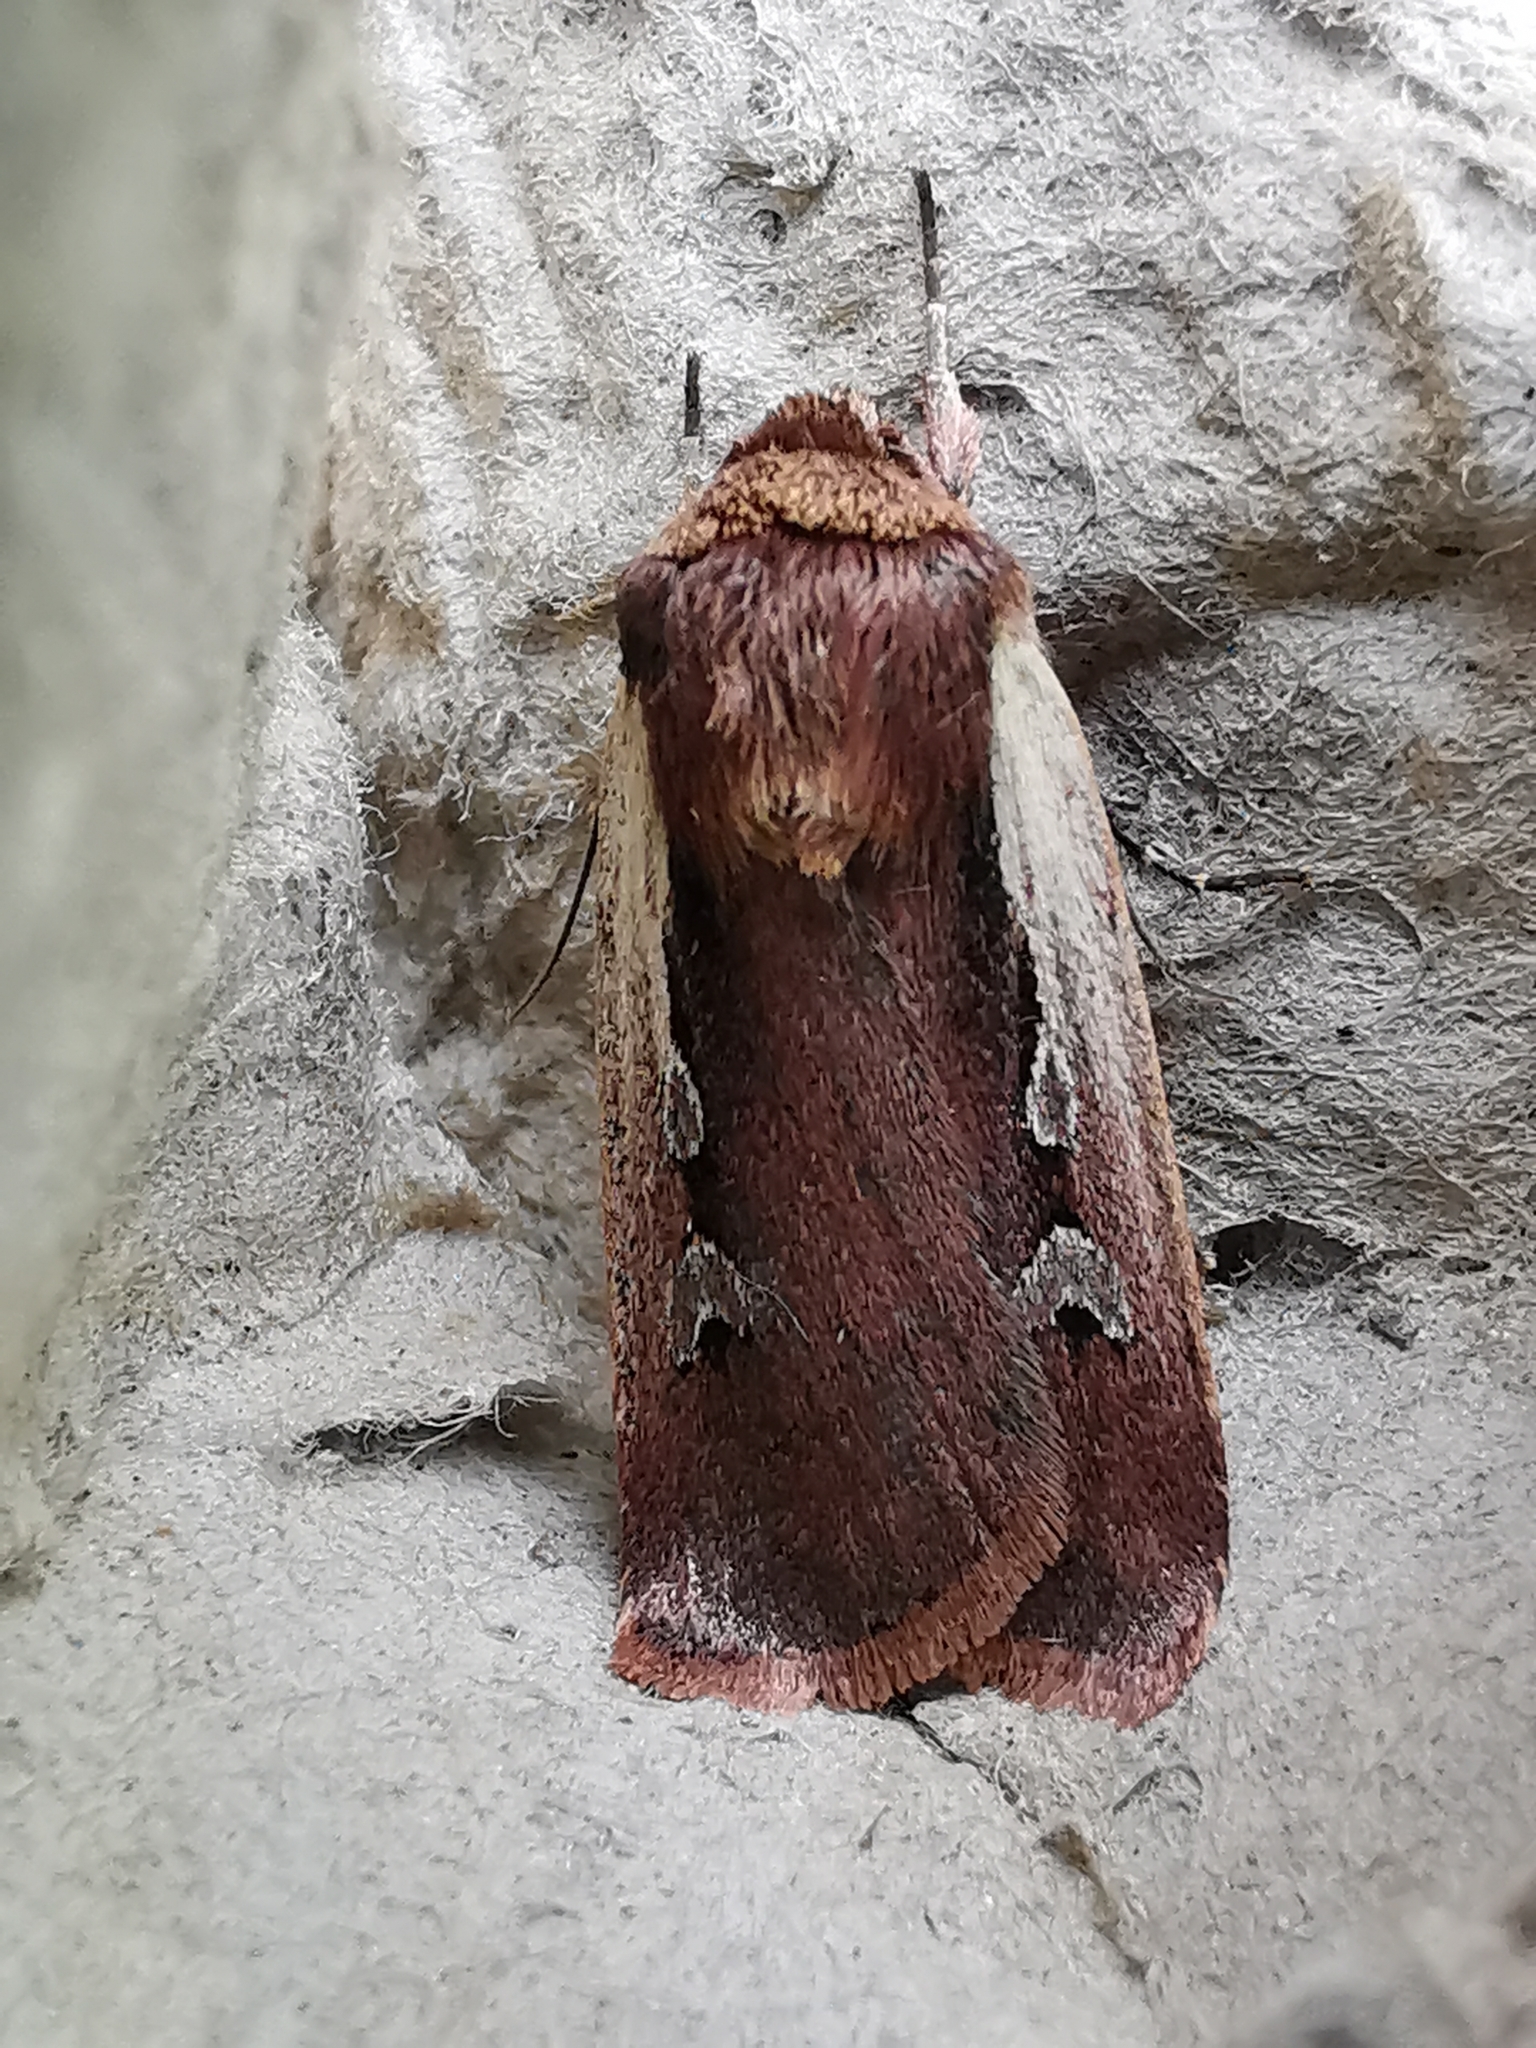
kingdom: Animalia
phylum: Arthropoda
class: Insecta
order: Lepidoptera
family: Noctuidae
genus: Ochropleura
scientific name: Ochropleura plecta
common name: Flame shoulder
